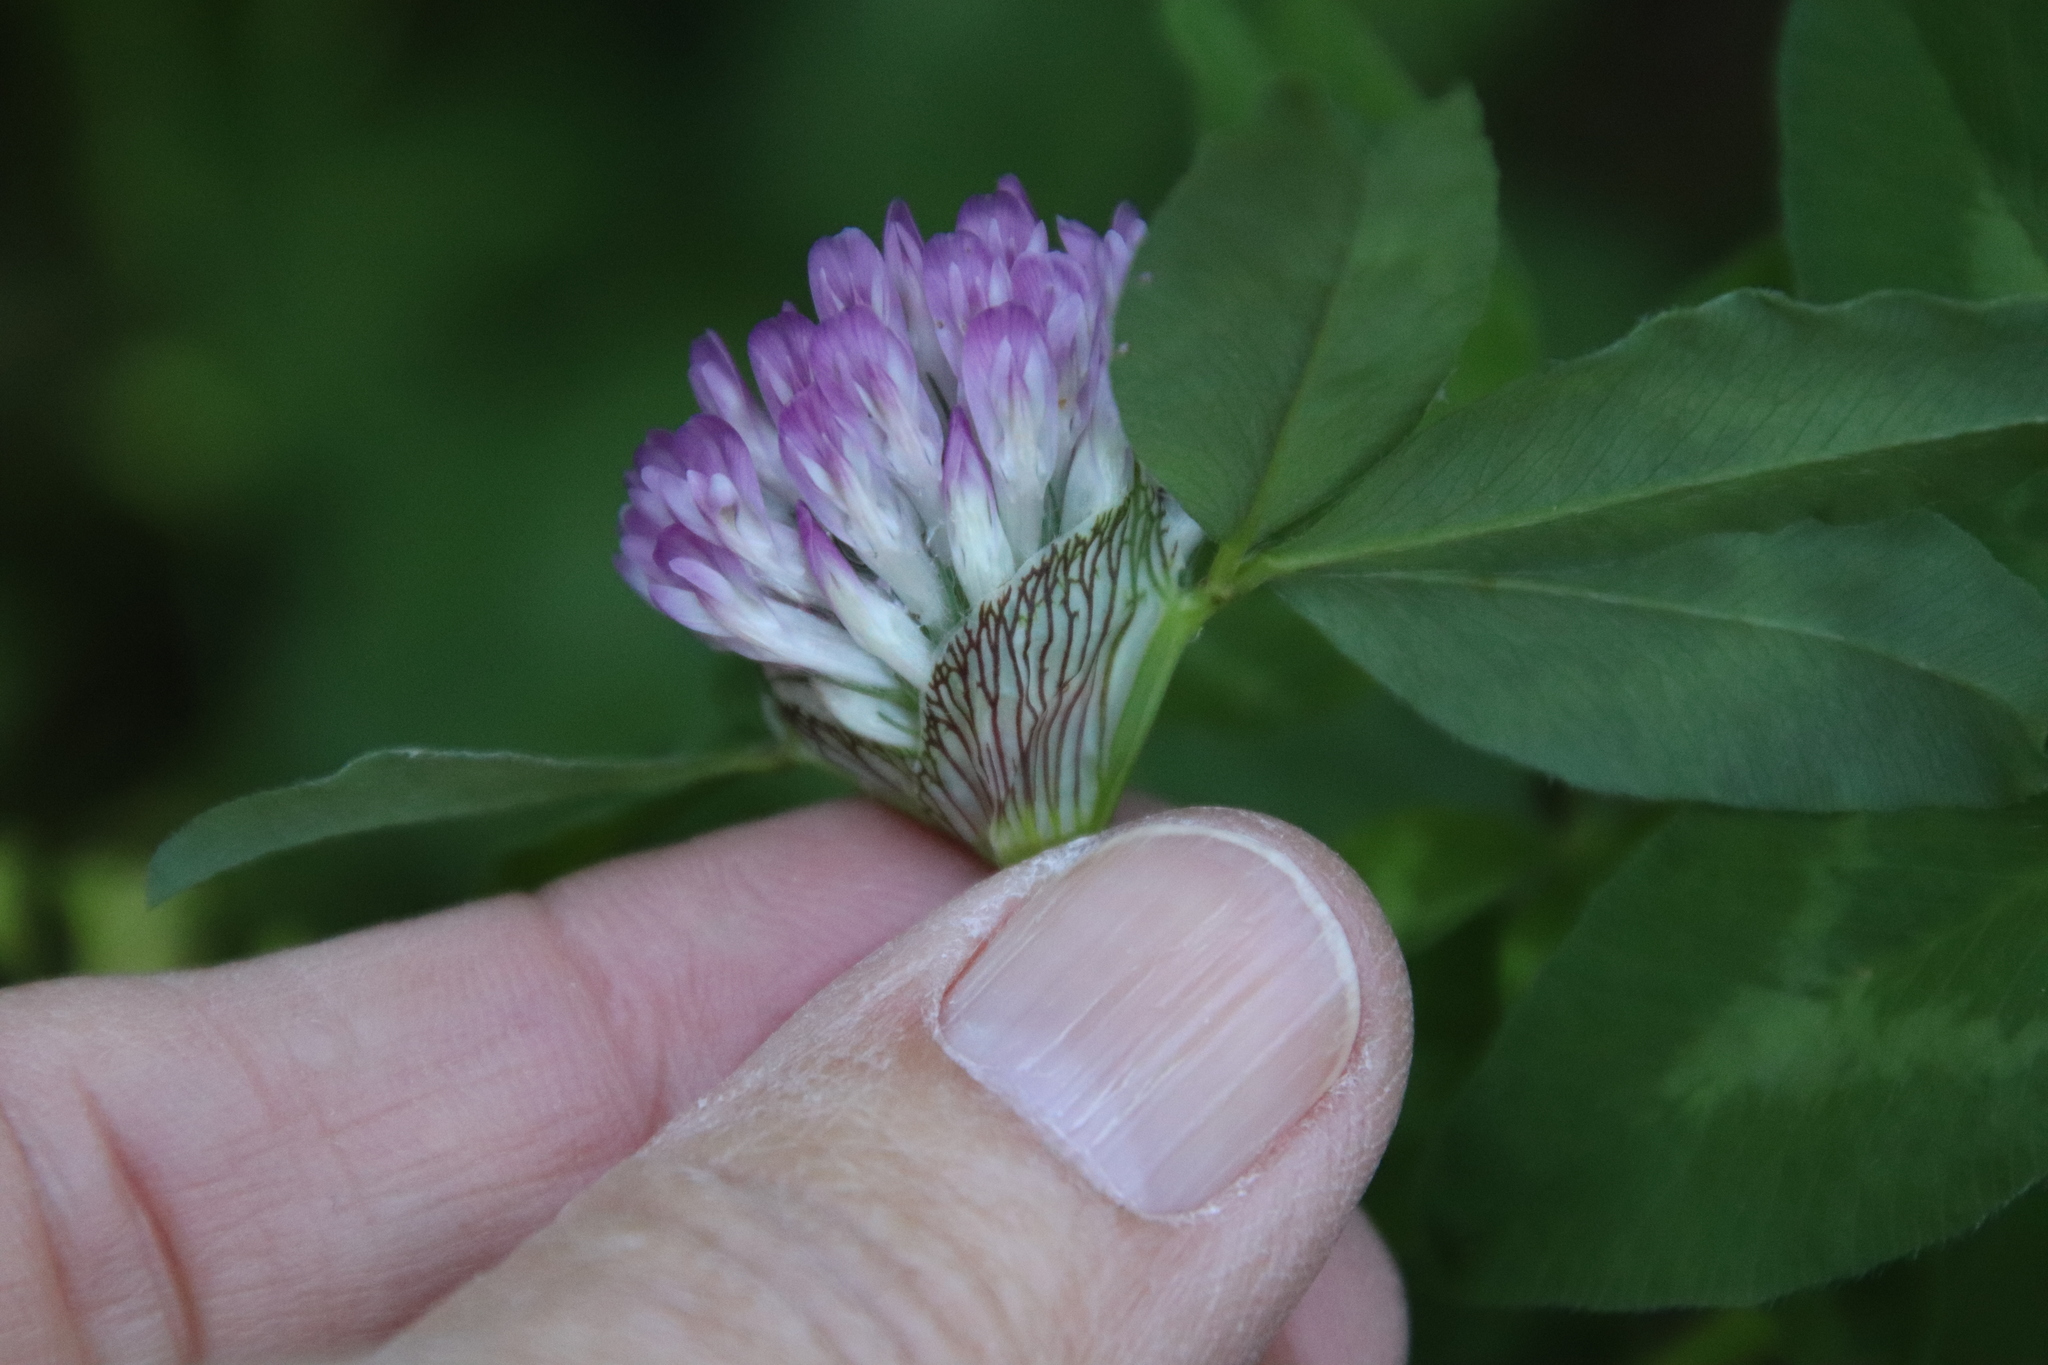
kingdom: Plantae
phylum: Tracheophyta
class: Magnoliopsida
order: Fabales
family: Fabaceae
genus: Trifolium
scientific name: Trifolium pratense
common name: Red clover
